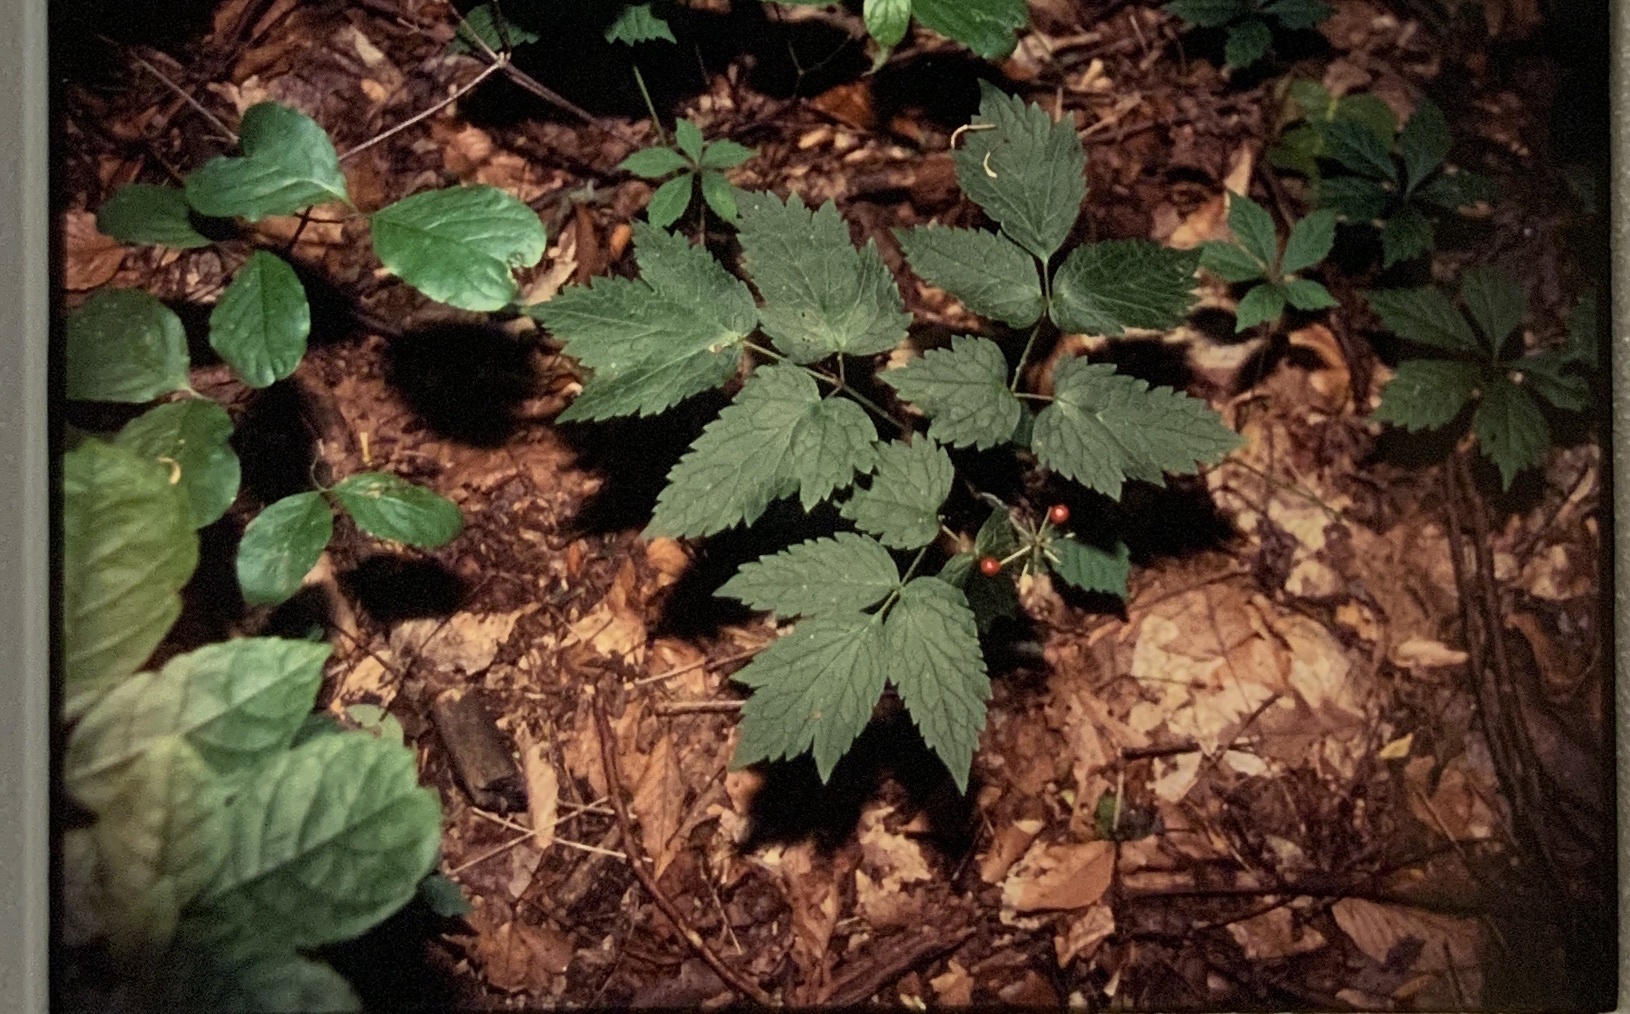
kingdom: Plantae
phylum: Tracheophyta
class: Magnoliopsida
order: Ranunculales
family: Ranunculaceae
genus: Actaea
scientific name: Actaea rubra
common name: Red baneberry
